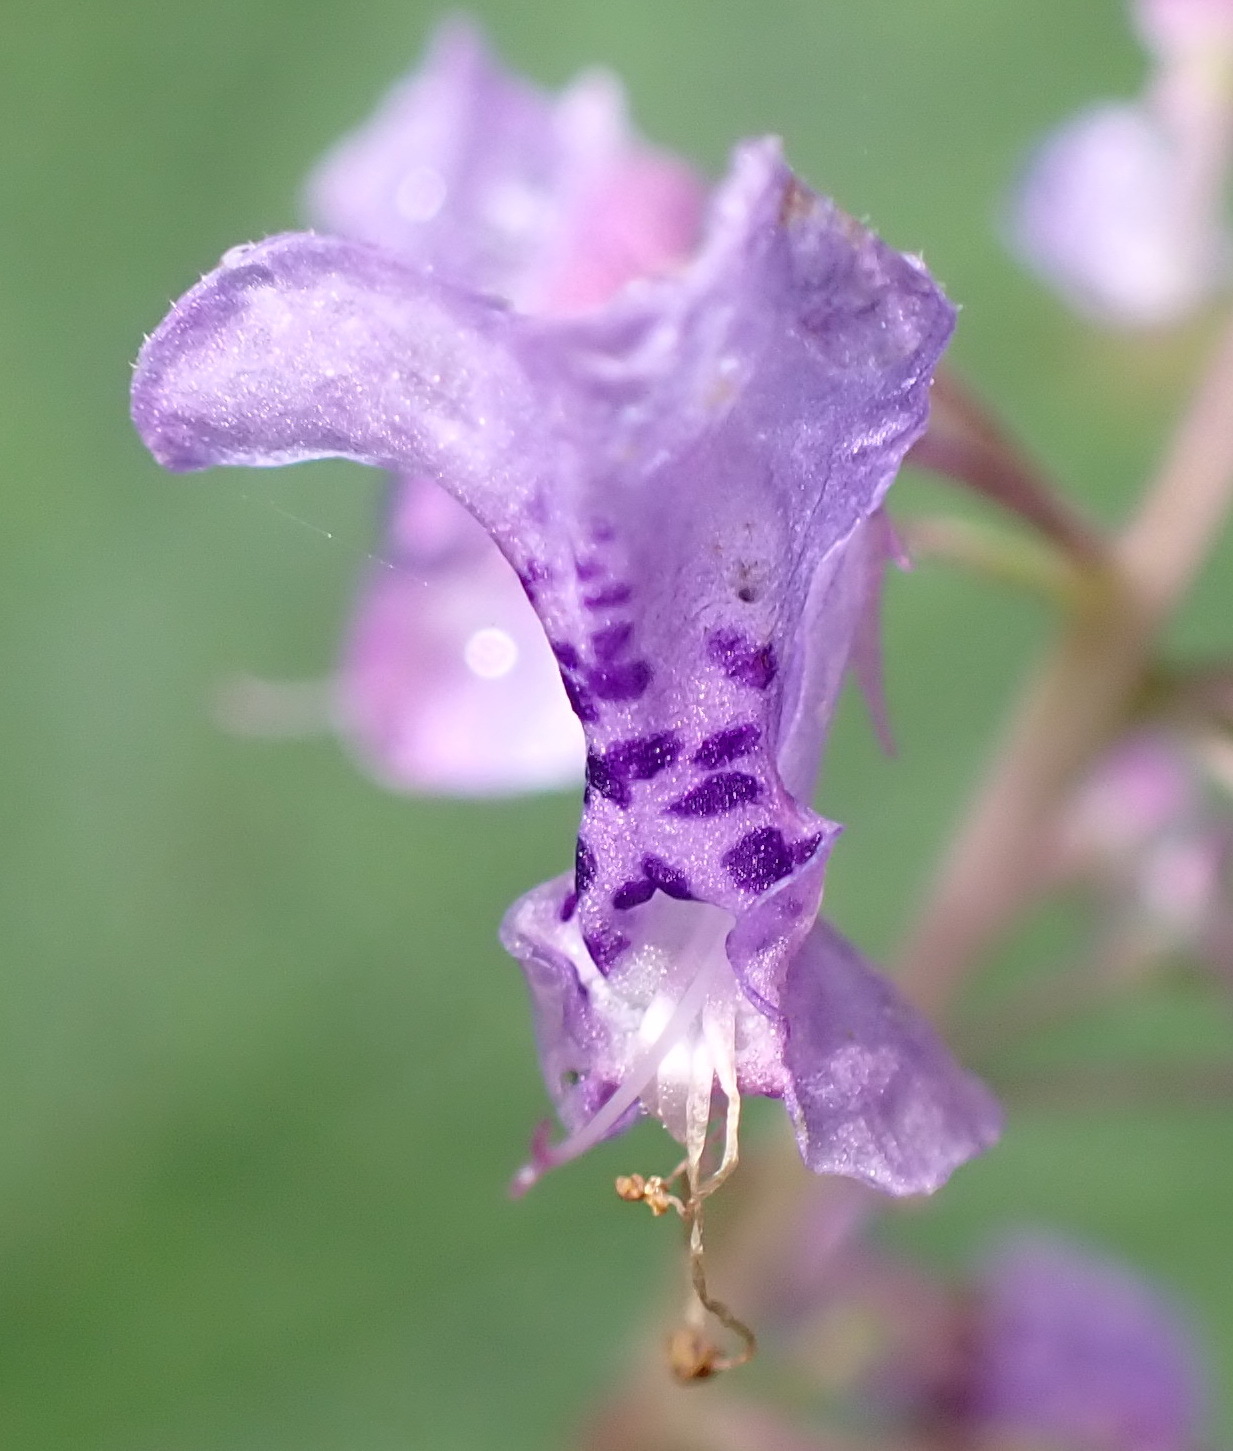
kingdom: Plantae
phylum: Tracheophyta
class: Magnoliopsida
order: Lamiales
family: Lamiaceae
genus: Plectranthus
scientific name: Plectranthus fruticosus
